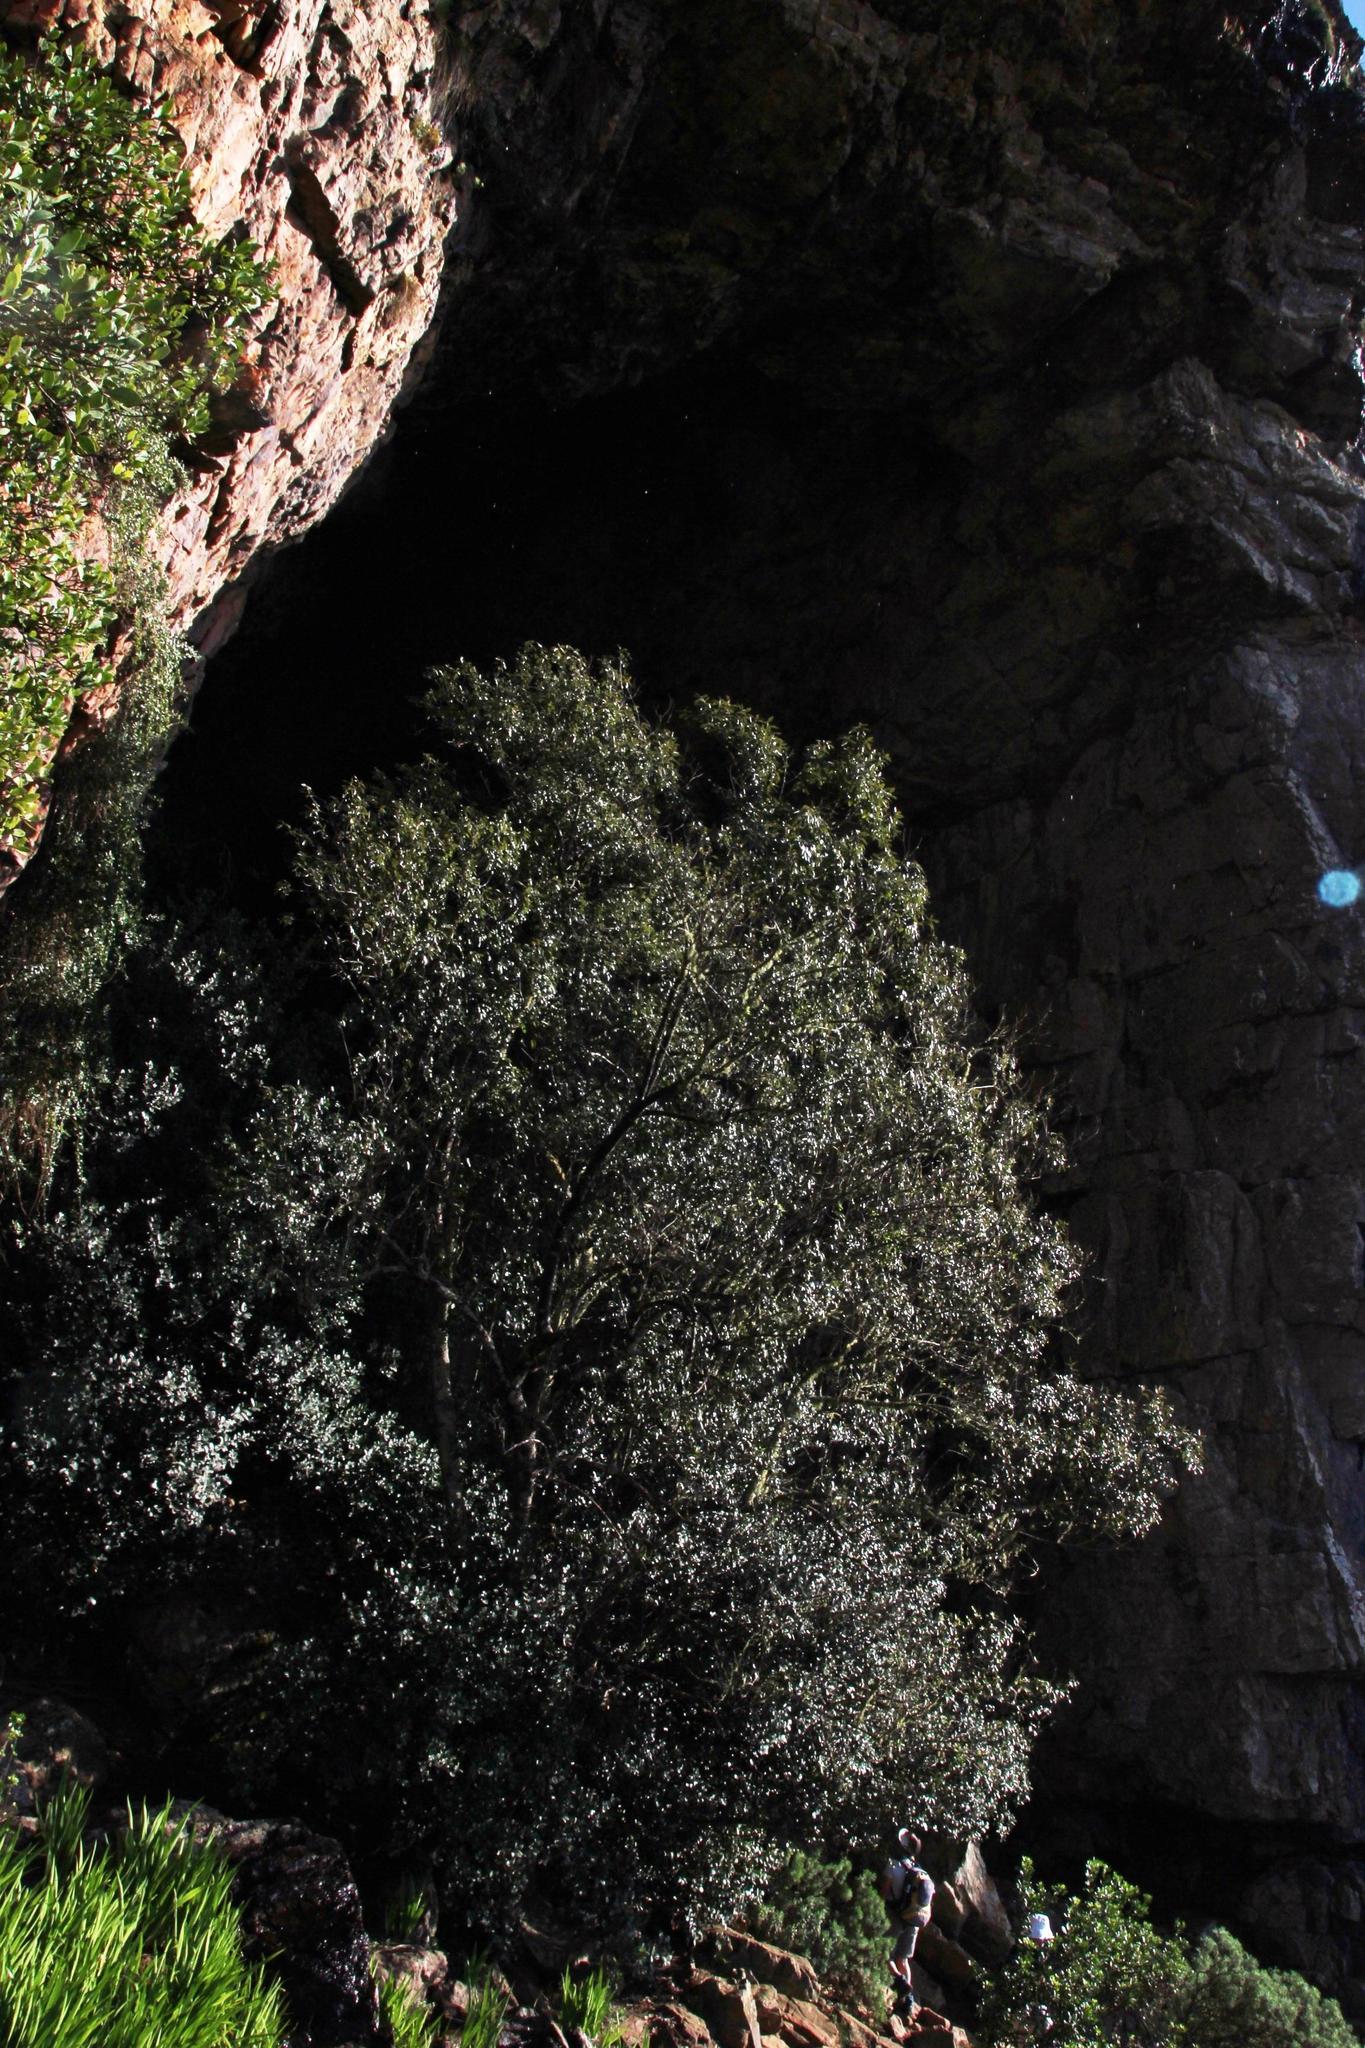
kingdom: Plantae
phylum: Tracheophyta
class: Magnoliopsida
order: Celastrales
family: Celastraceae
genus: Gymnosporia
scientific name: Gymnosporia laurina
